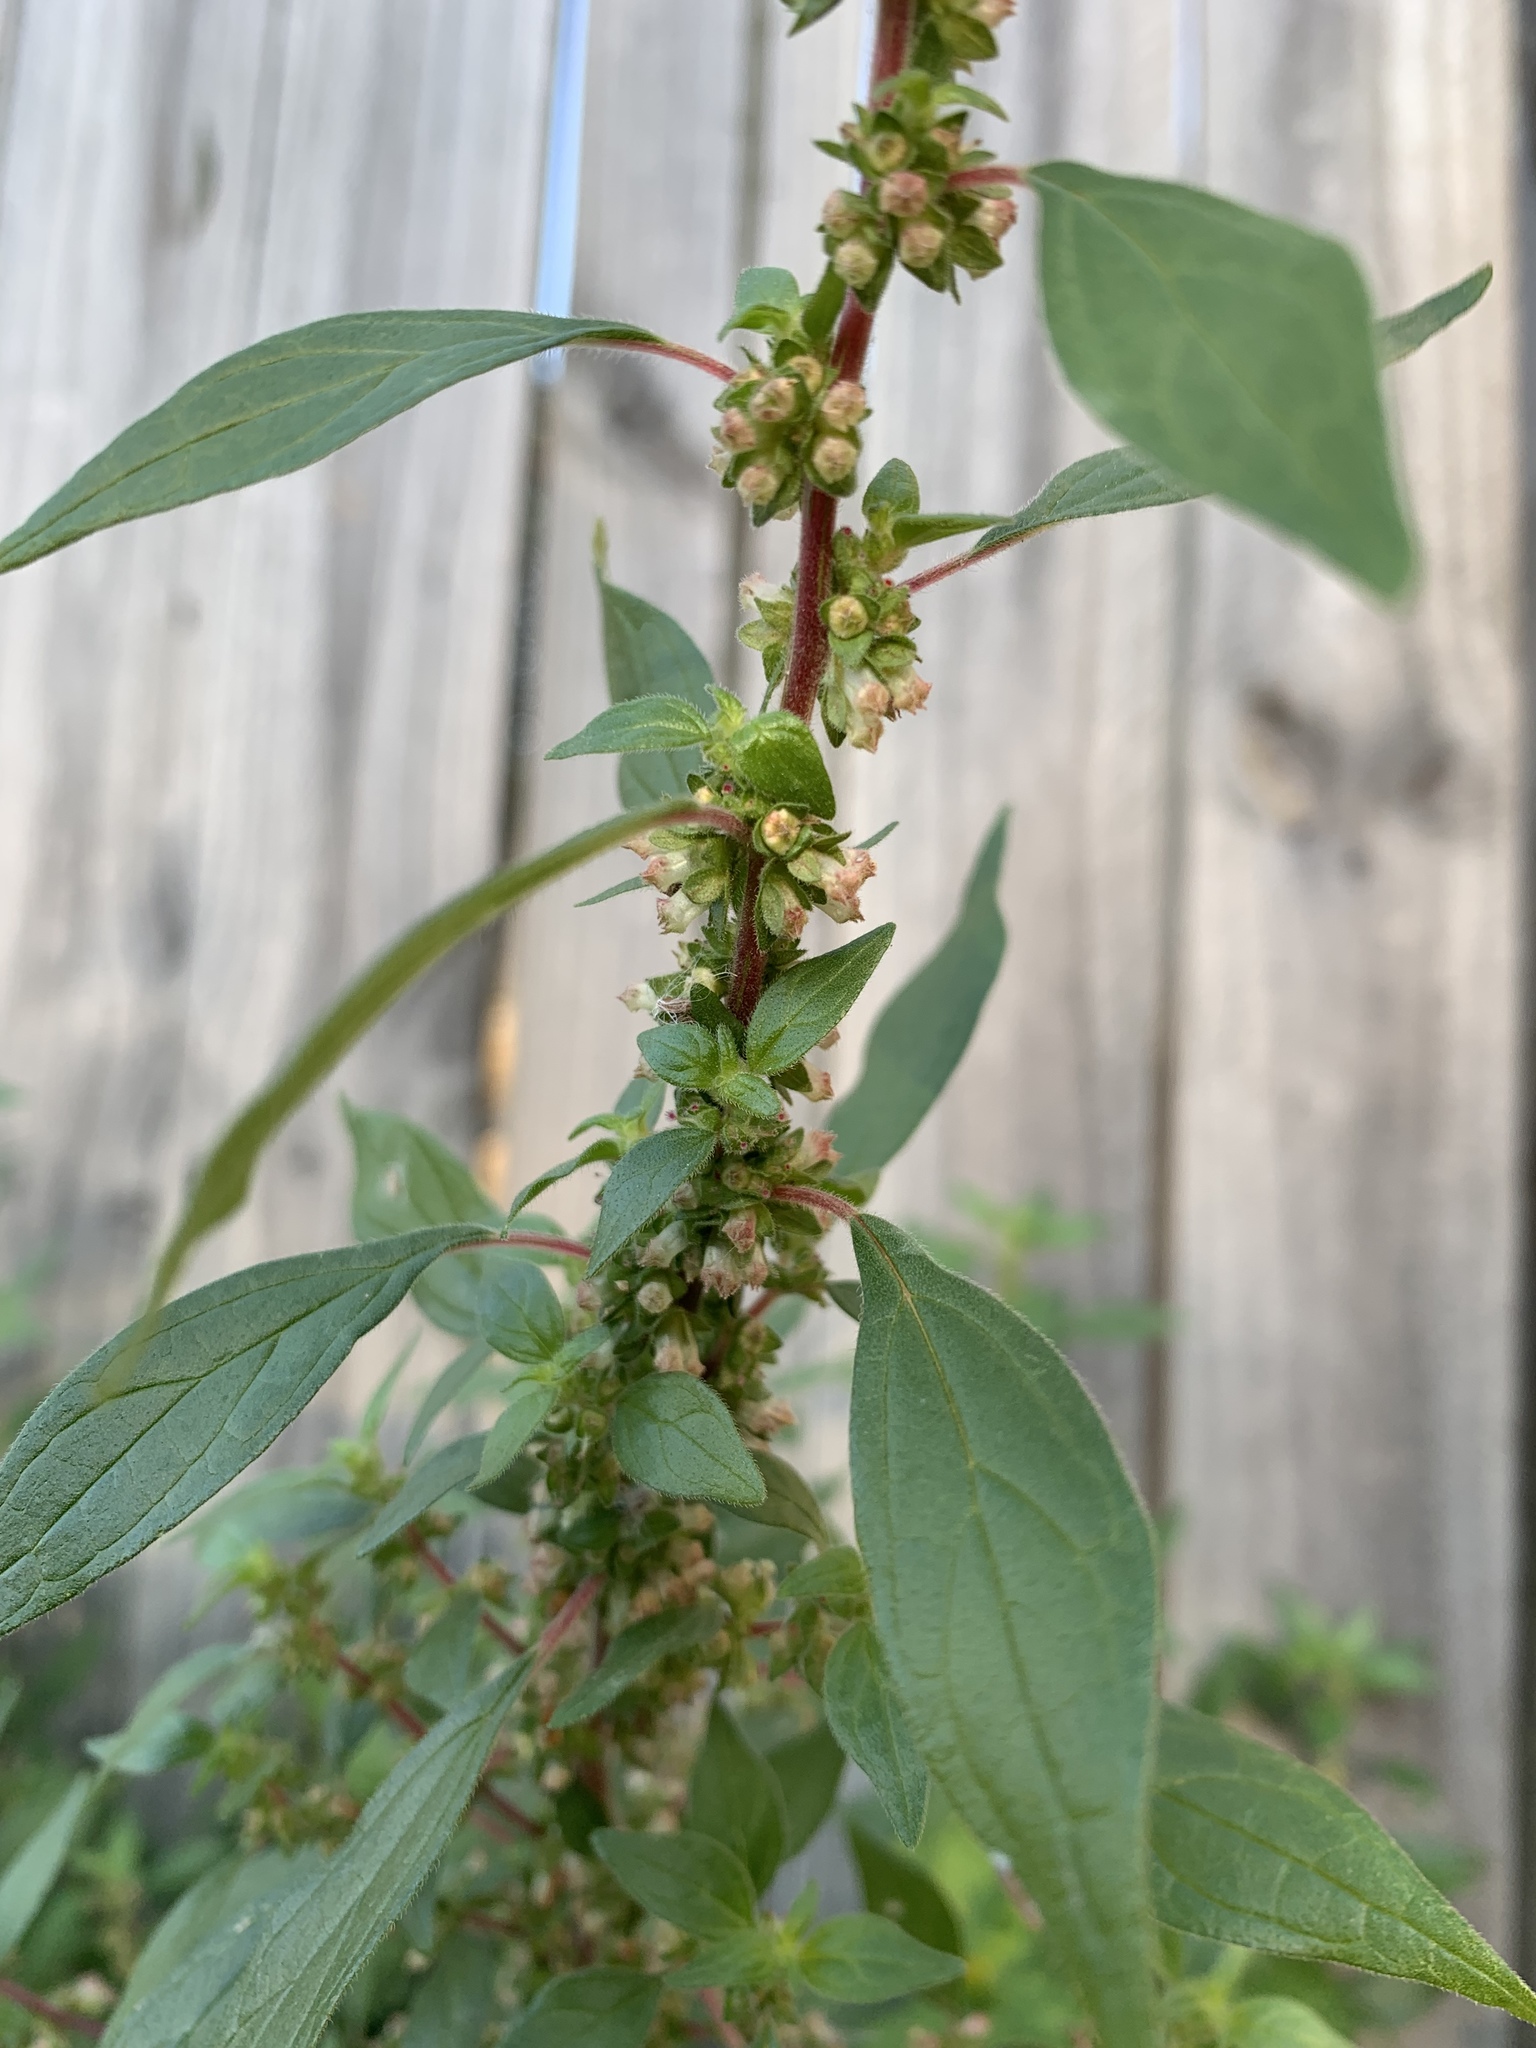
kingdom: Plantae
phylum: Tracheophyta
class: Magnoliopsida
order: Rosales
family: Urticaceae
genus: Parietaria
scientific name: Parietaria judaica
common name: Pellitory-of-the-wall
